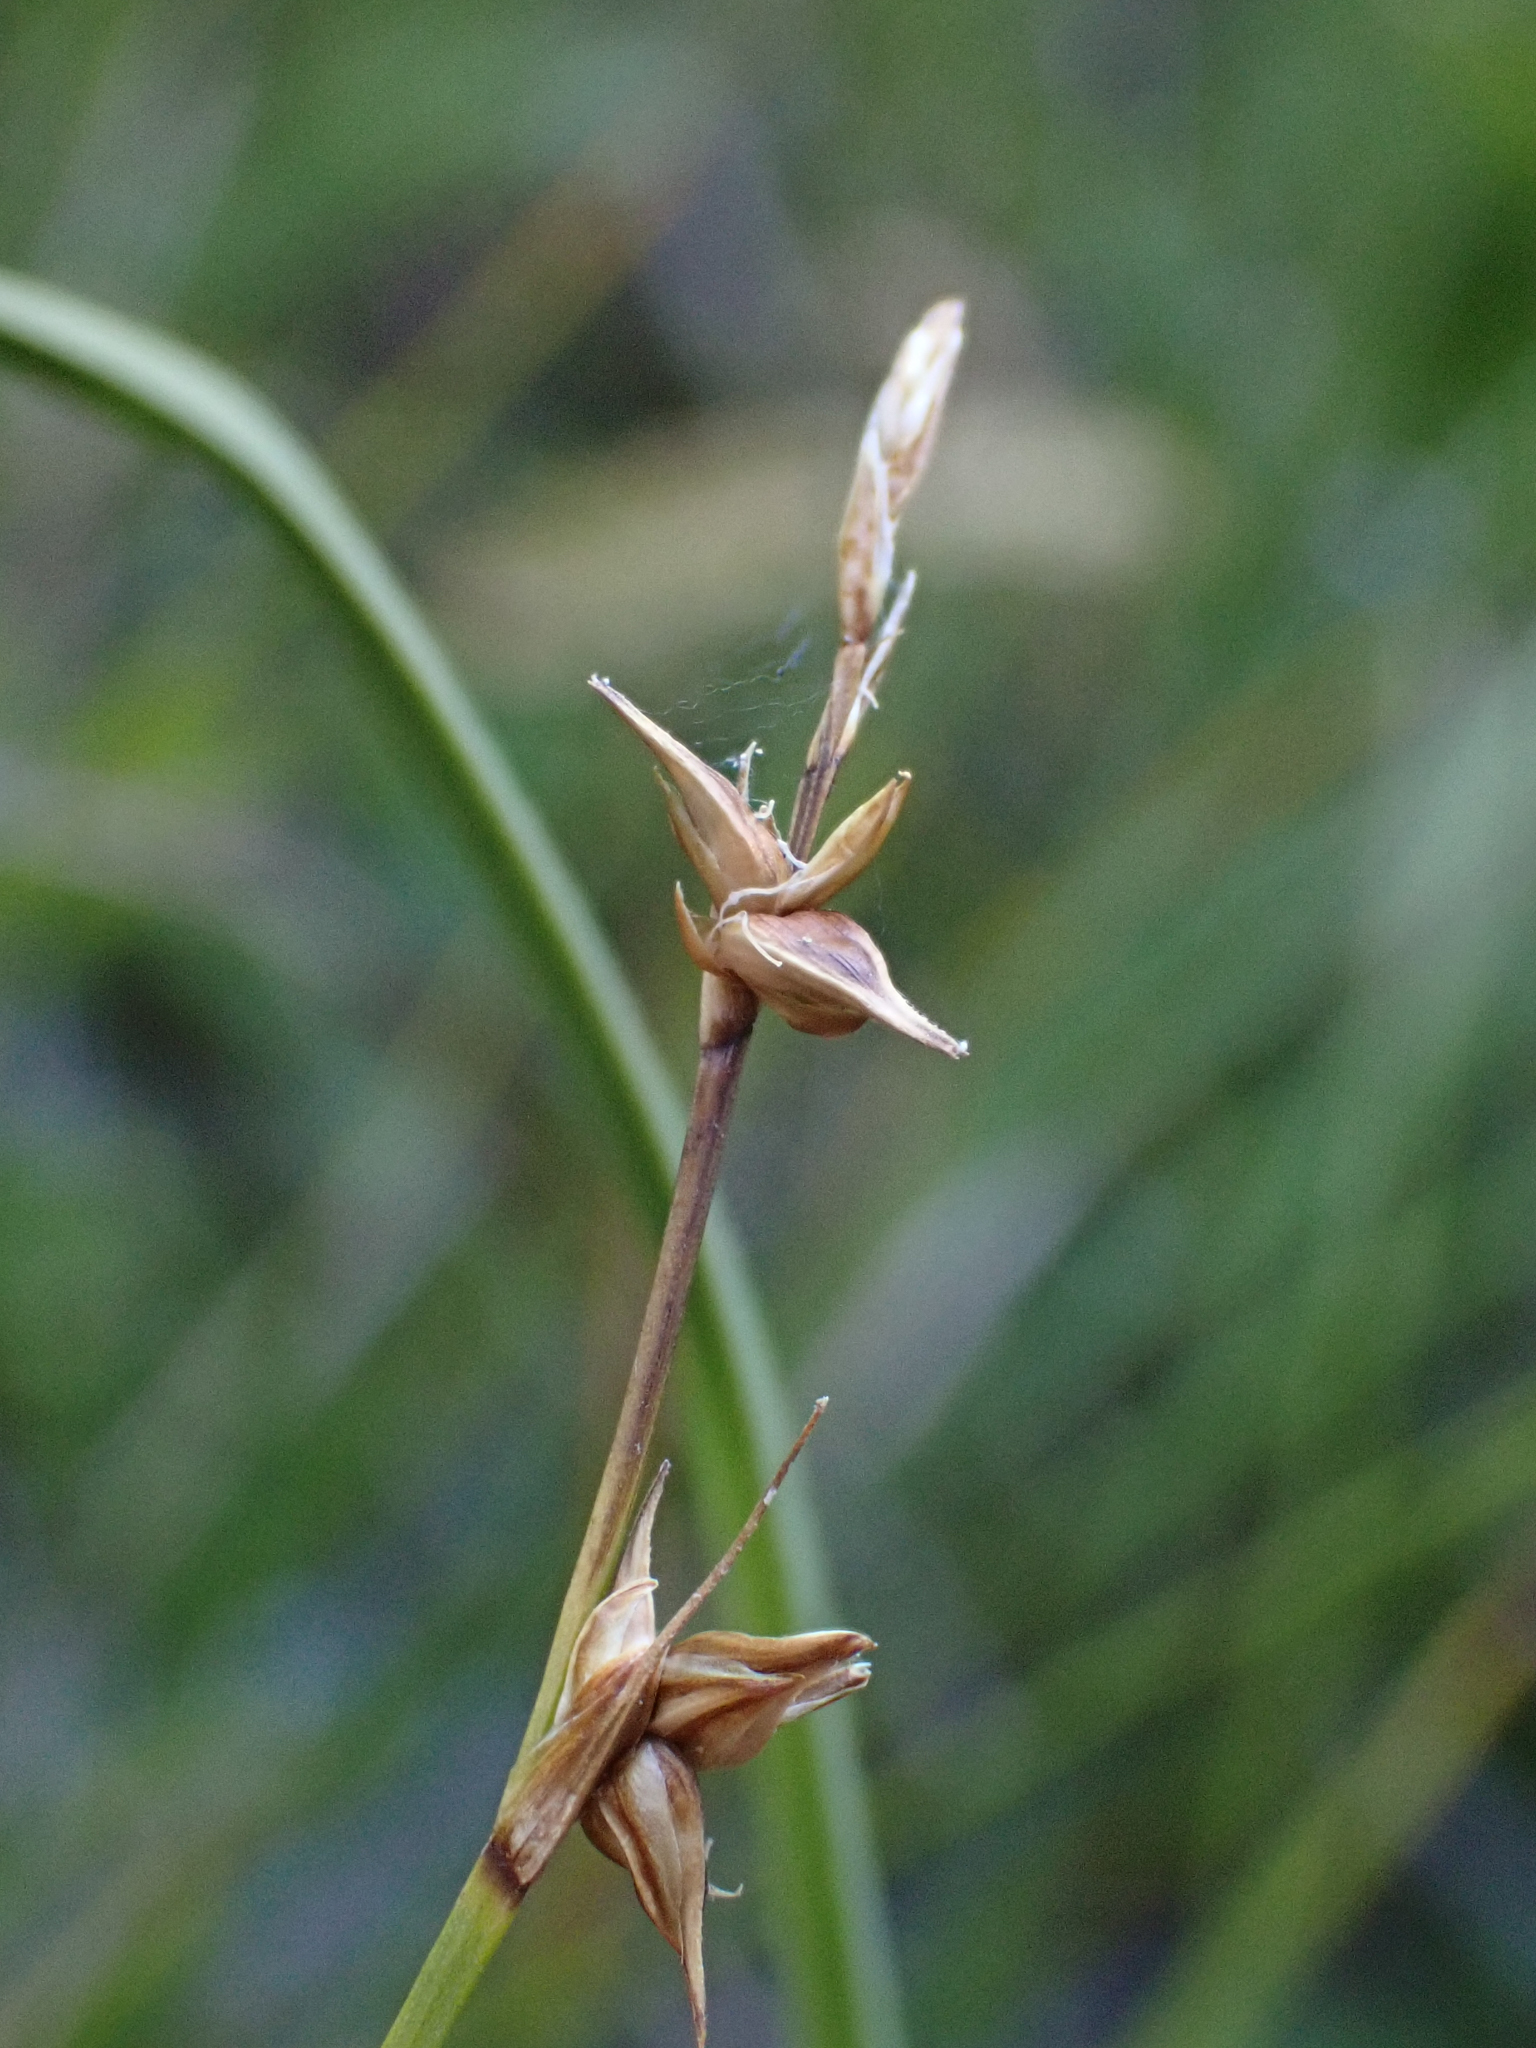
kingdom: Plantae
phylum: Tracheophyta
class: Liliopsida
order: Poales
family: Cyperaceae
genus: Carex
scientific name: Carex echinata
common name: Star sedge
